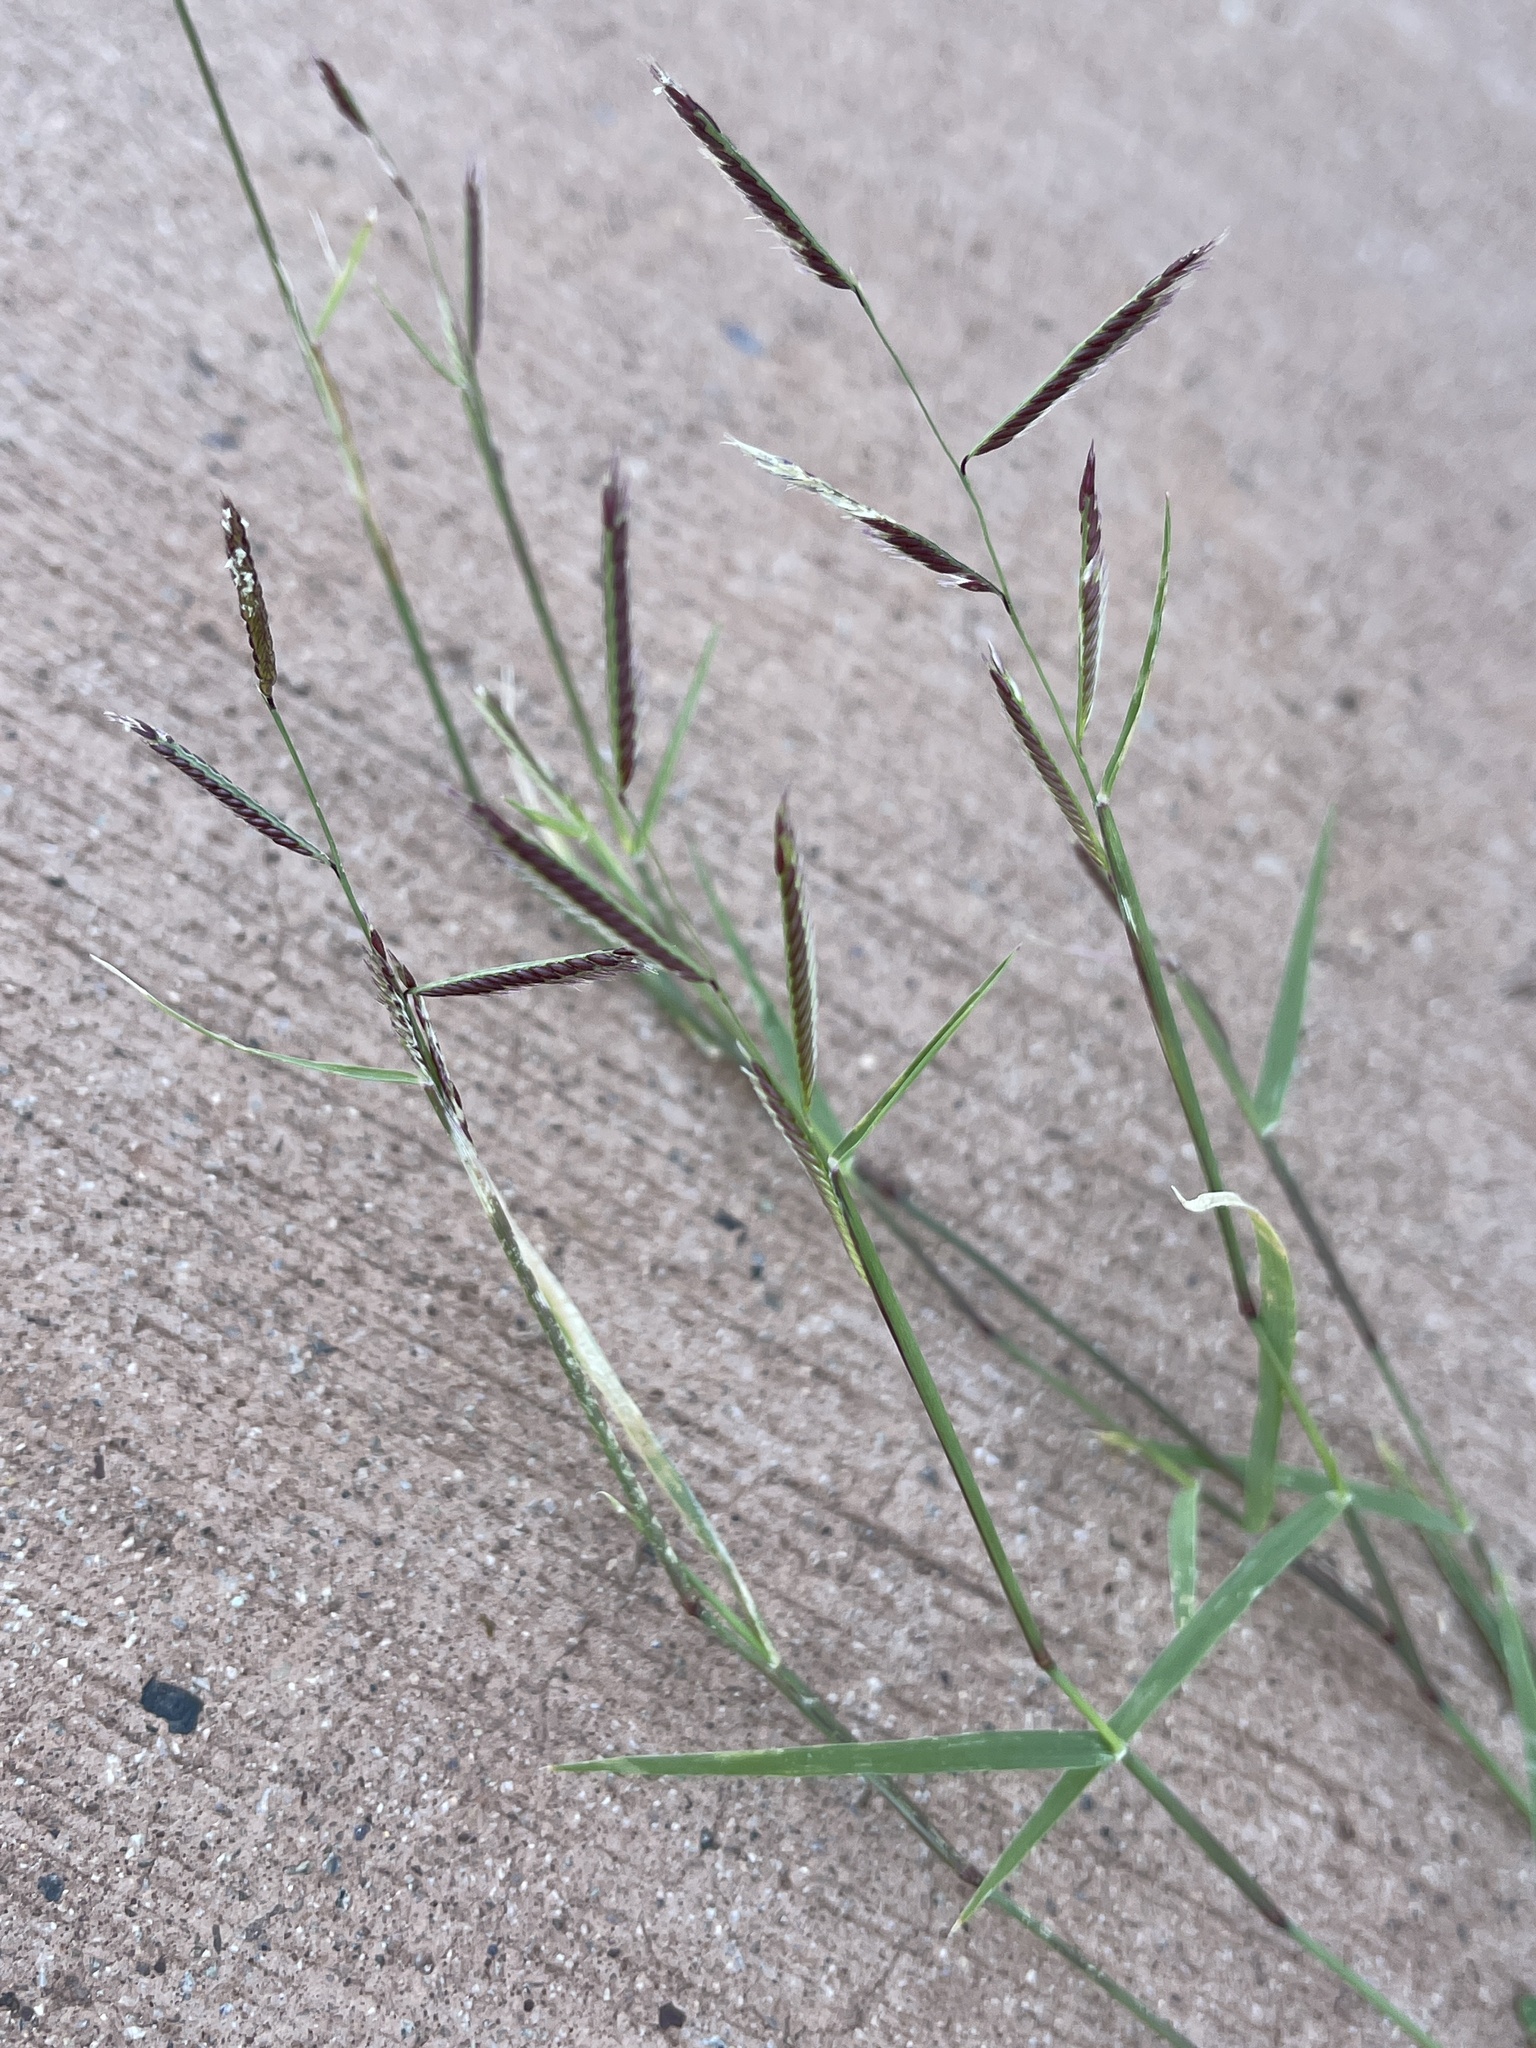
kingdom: Plantae
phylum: Tracheophyta
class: Liliopsida
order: Poales
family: Poaceae
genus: Bouteloua
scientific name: Bouteloua barbata
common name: Six-weeks grama
